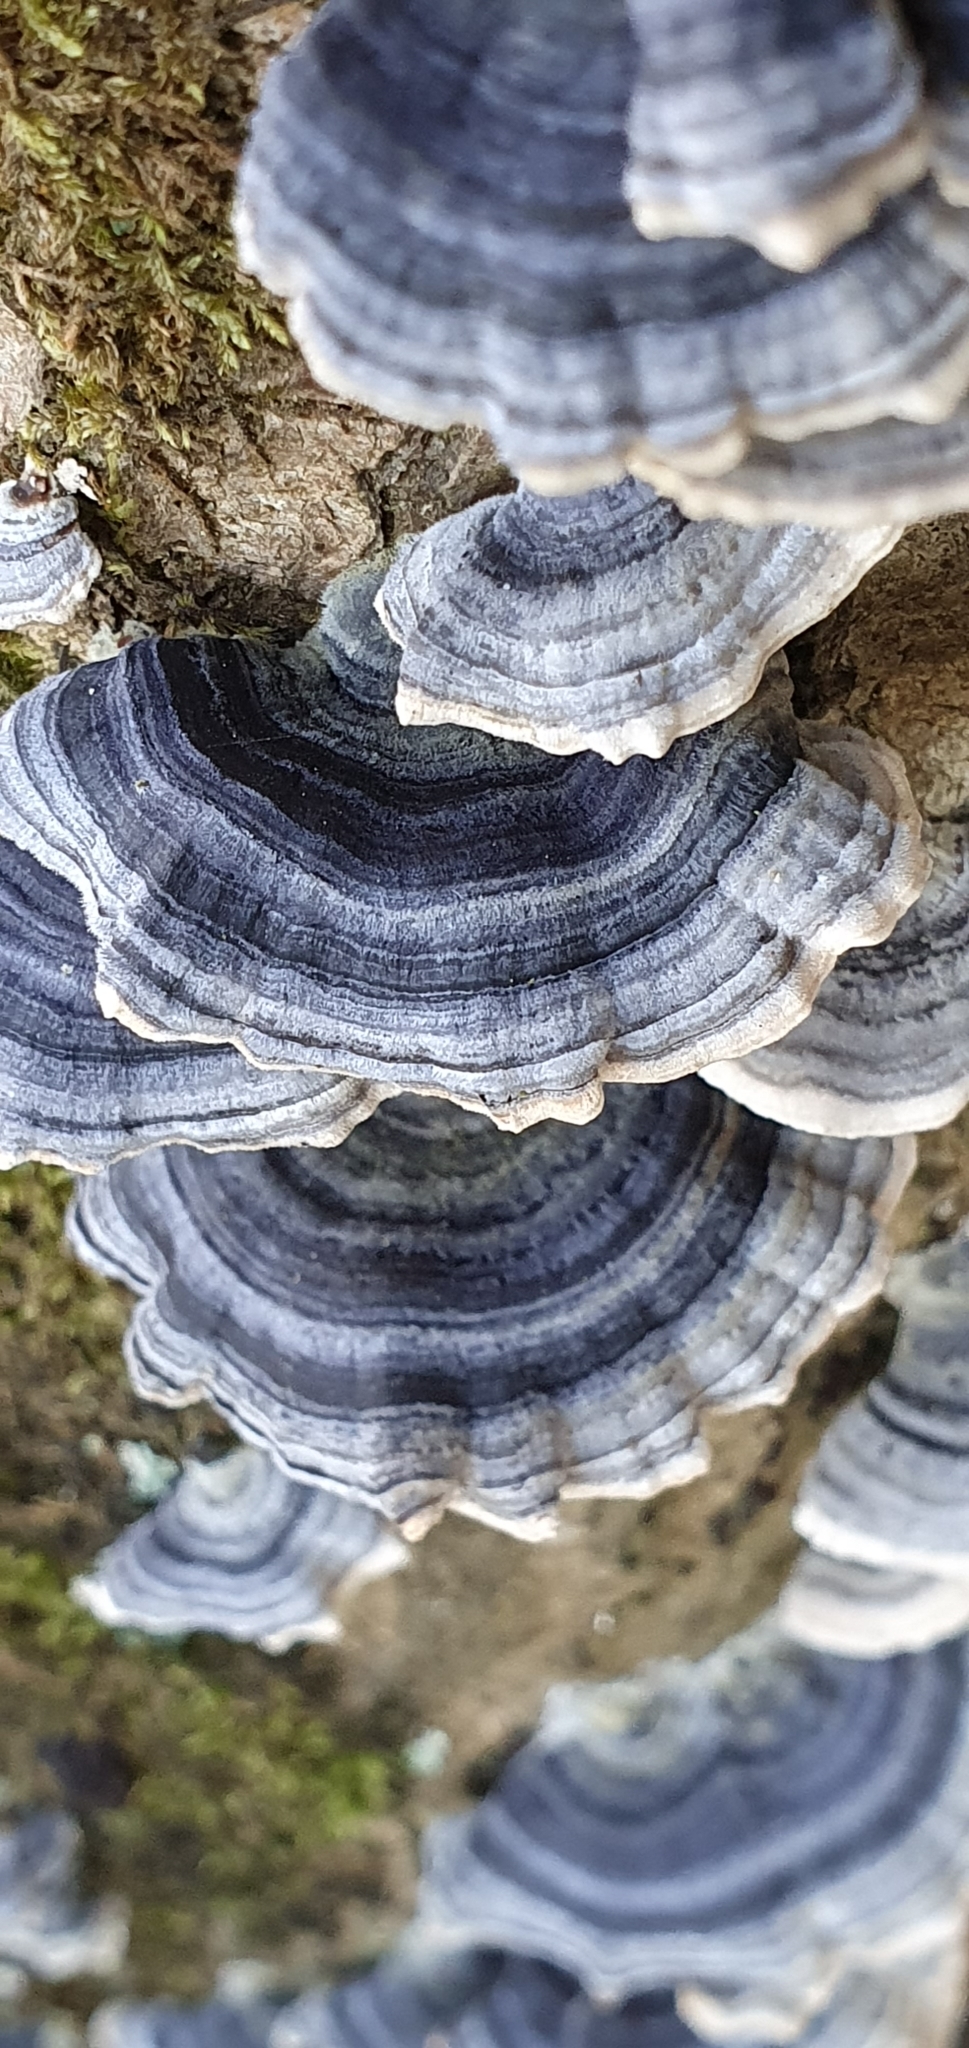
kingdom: Fungi
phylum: Basidiomycota
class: Agaricomycetes
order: Polyporales
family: Polyporaceae
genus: Trametes
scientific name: Trametes versicolor
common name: Turkeytail
